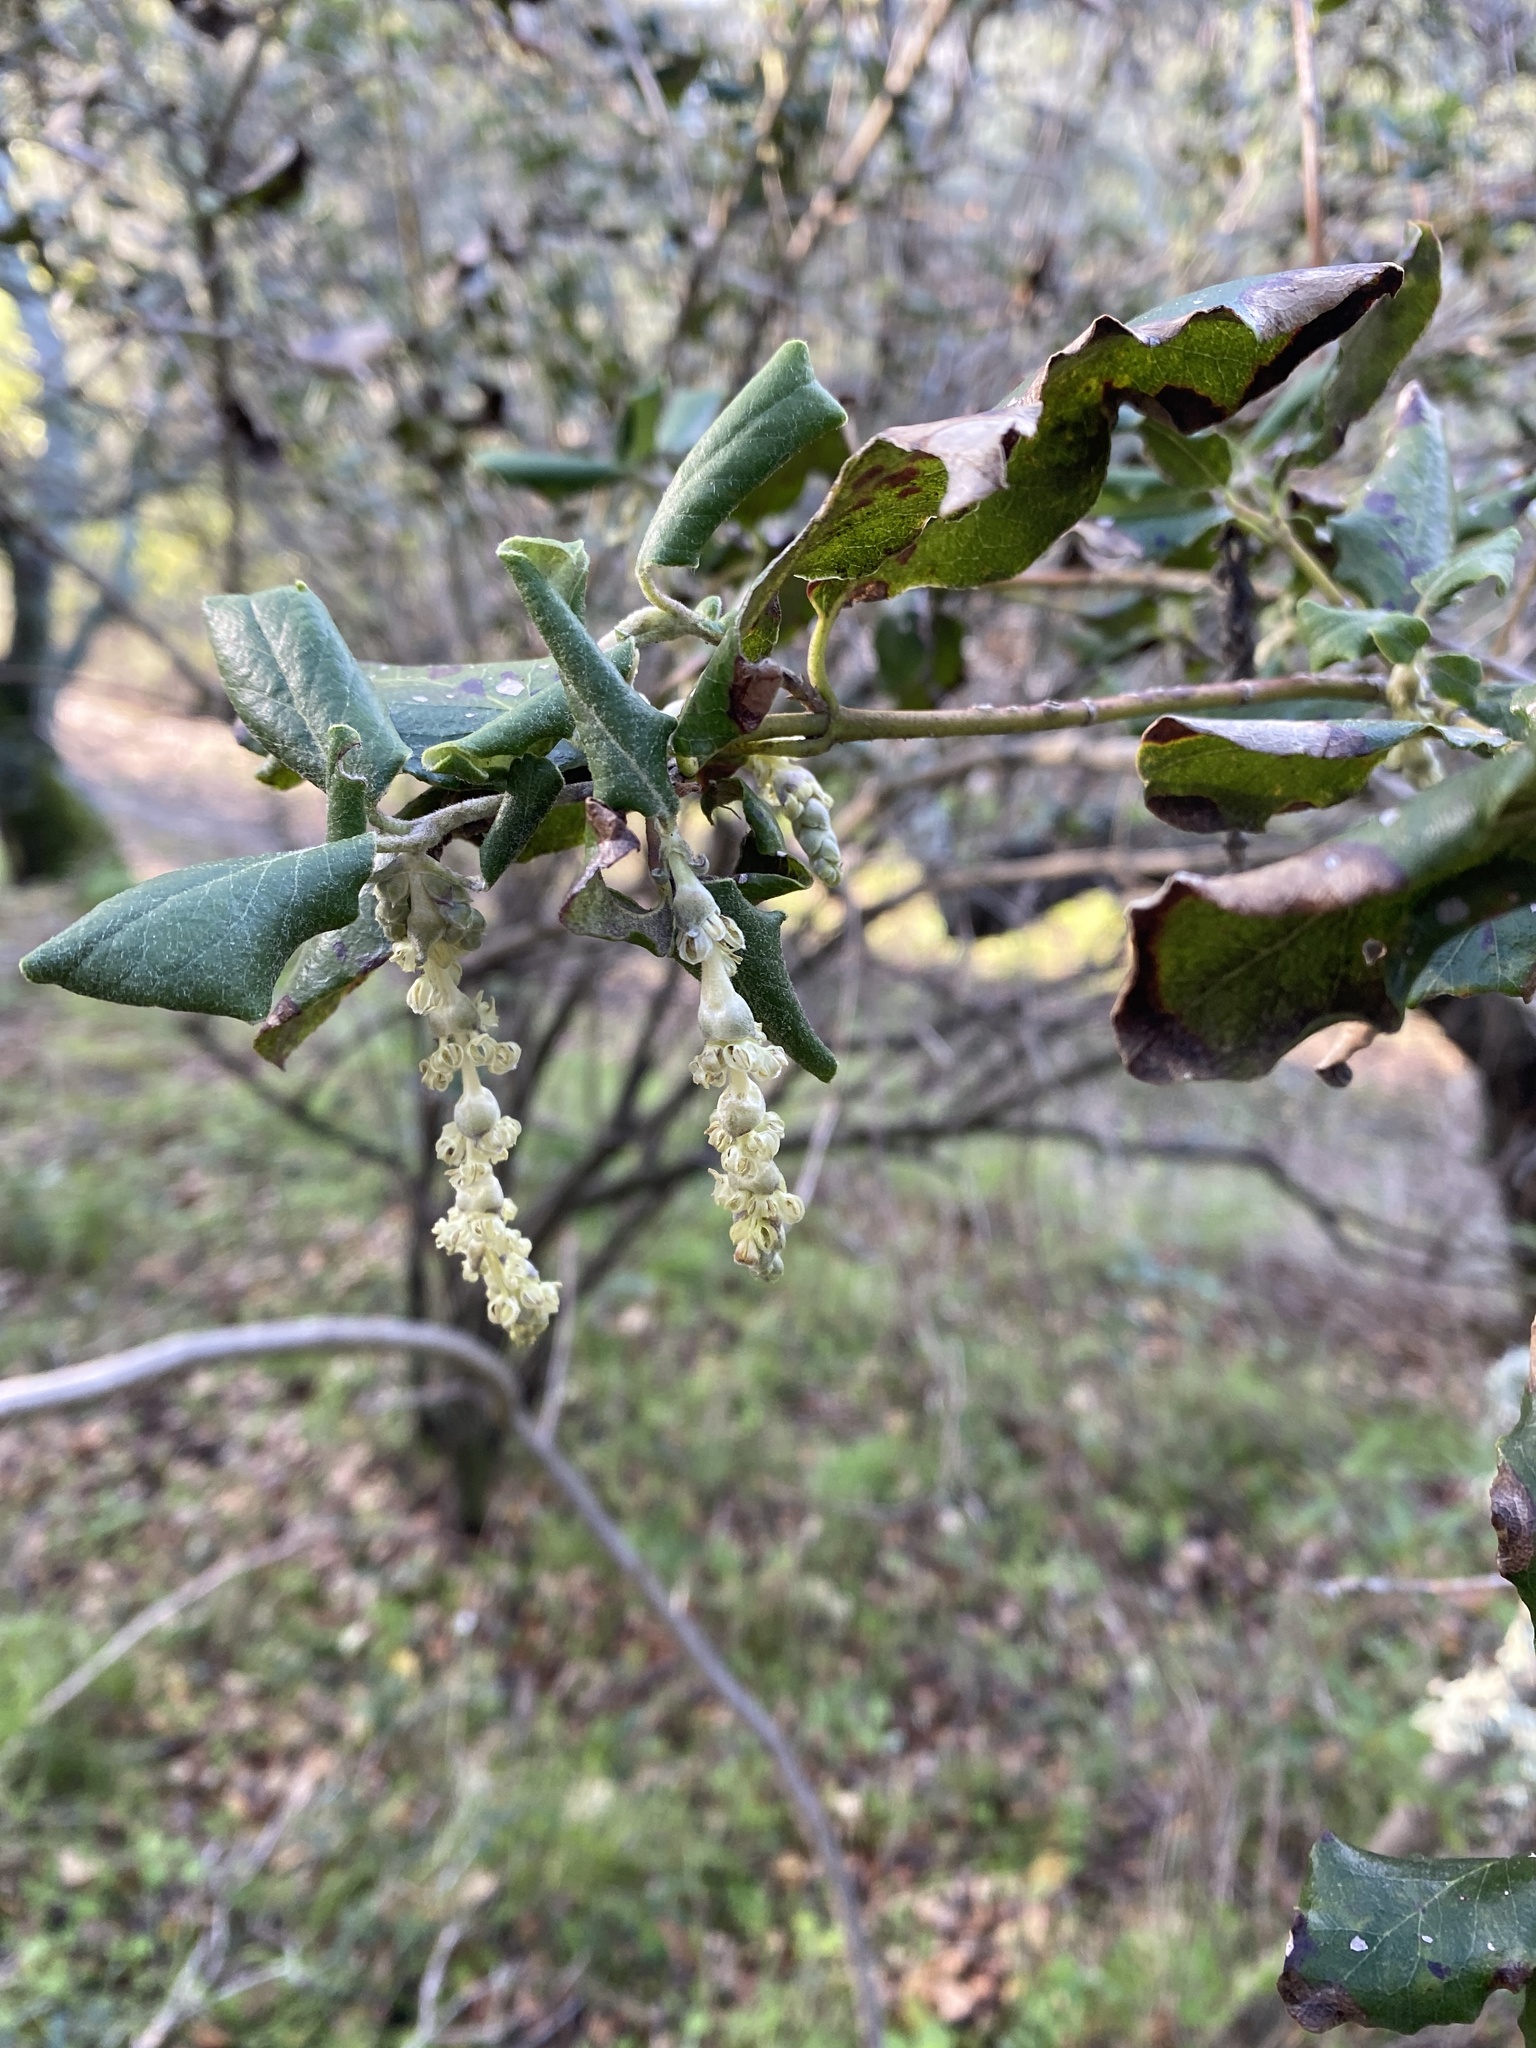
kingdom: Plantae
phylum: Tracheophyta
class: Magnoliopsida
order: Garryales
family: Garryaceae
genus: Garrya
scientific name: Garrya elliptica
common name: Silk-tassel
